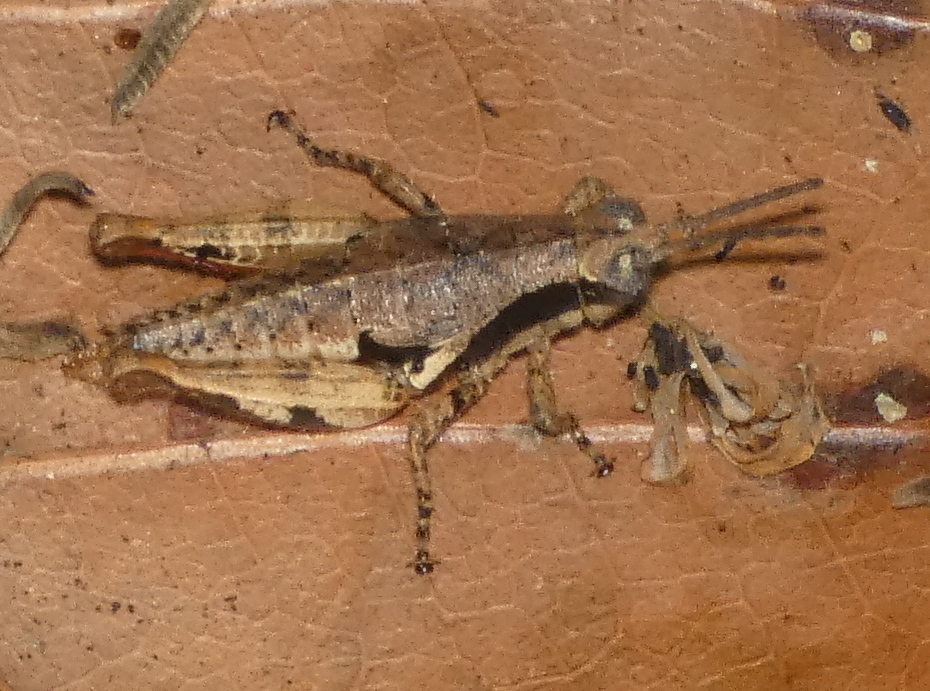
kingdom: Animalia
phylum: Arthropoda
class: Insecta
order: Orthoptera
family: Acrididae
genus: Eujivarus
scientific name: Eujivarus meridionalis
